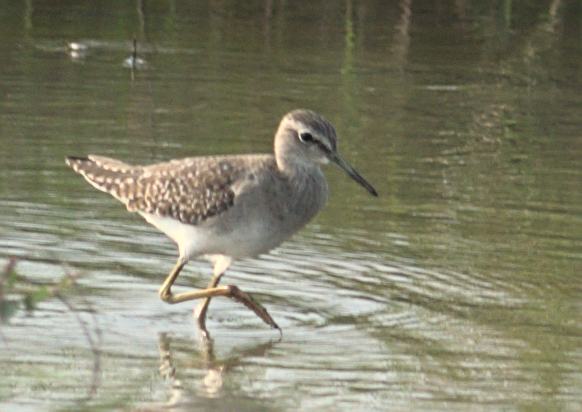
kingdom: Animalia
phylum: Chordata
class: Aves
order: Charadriiformes
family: Scolopacidae
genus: Tringa
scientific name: Tringa glareola
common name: Wood sandpiper
